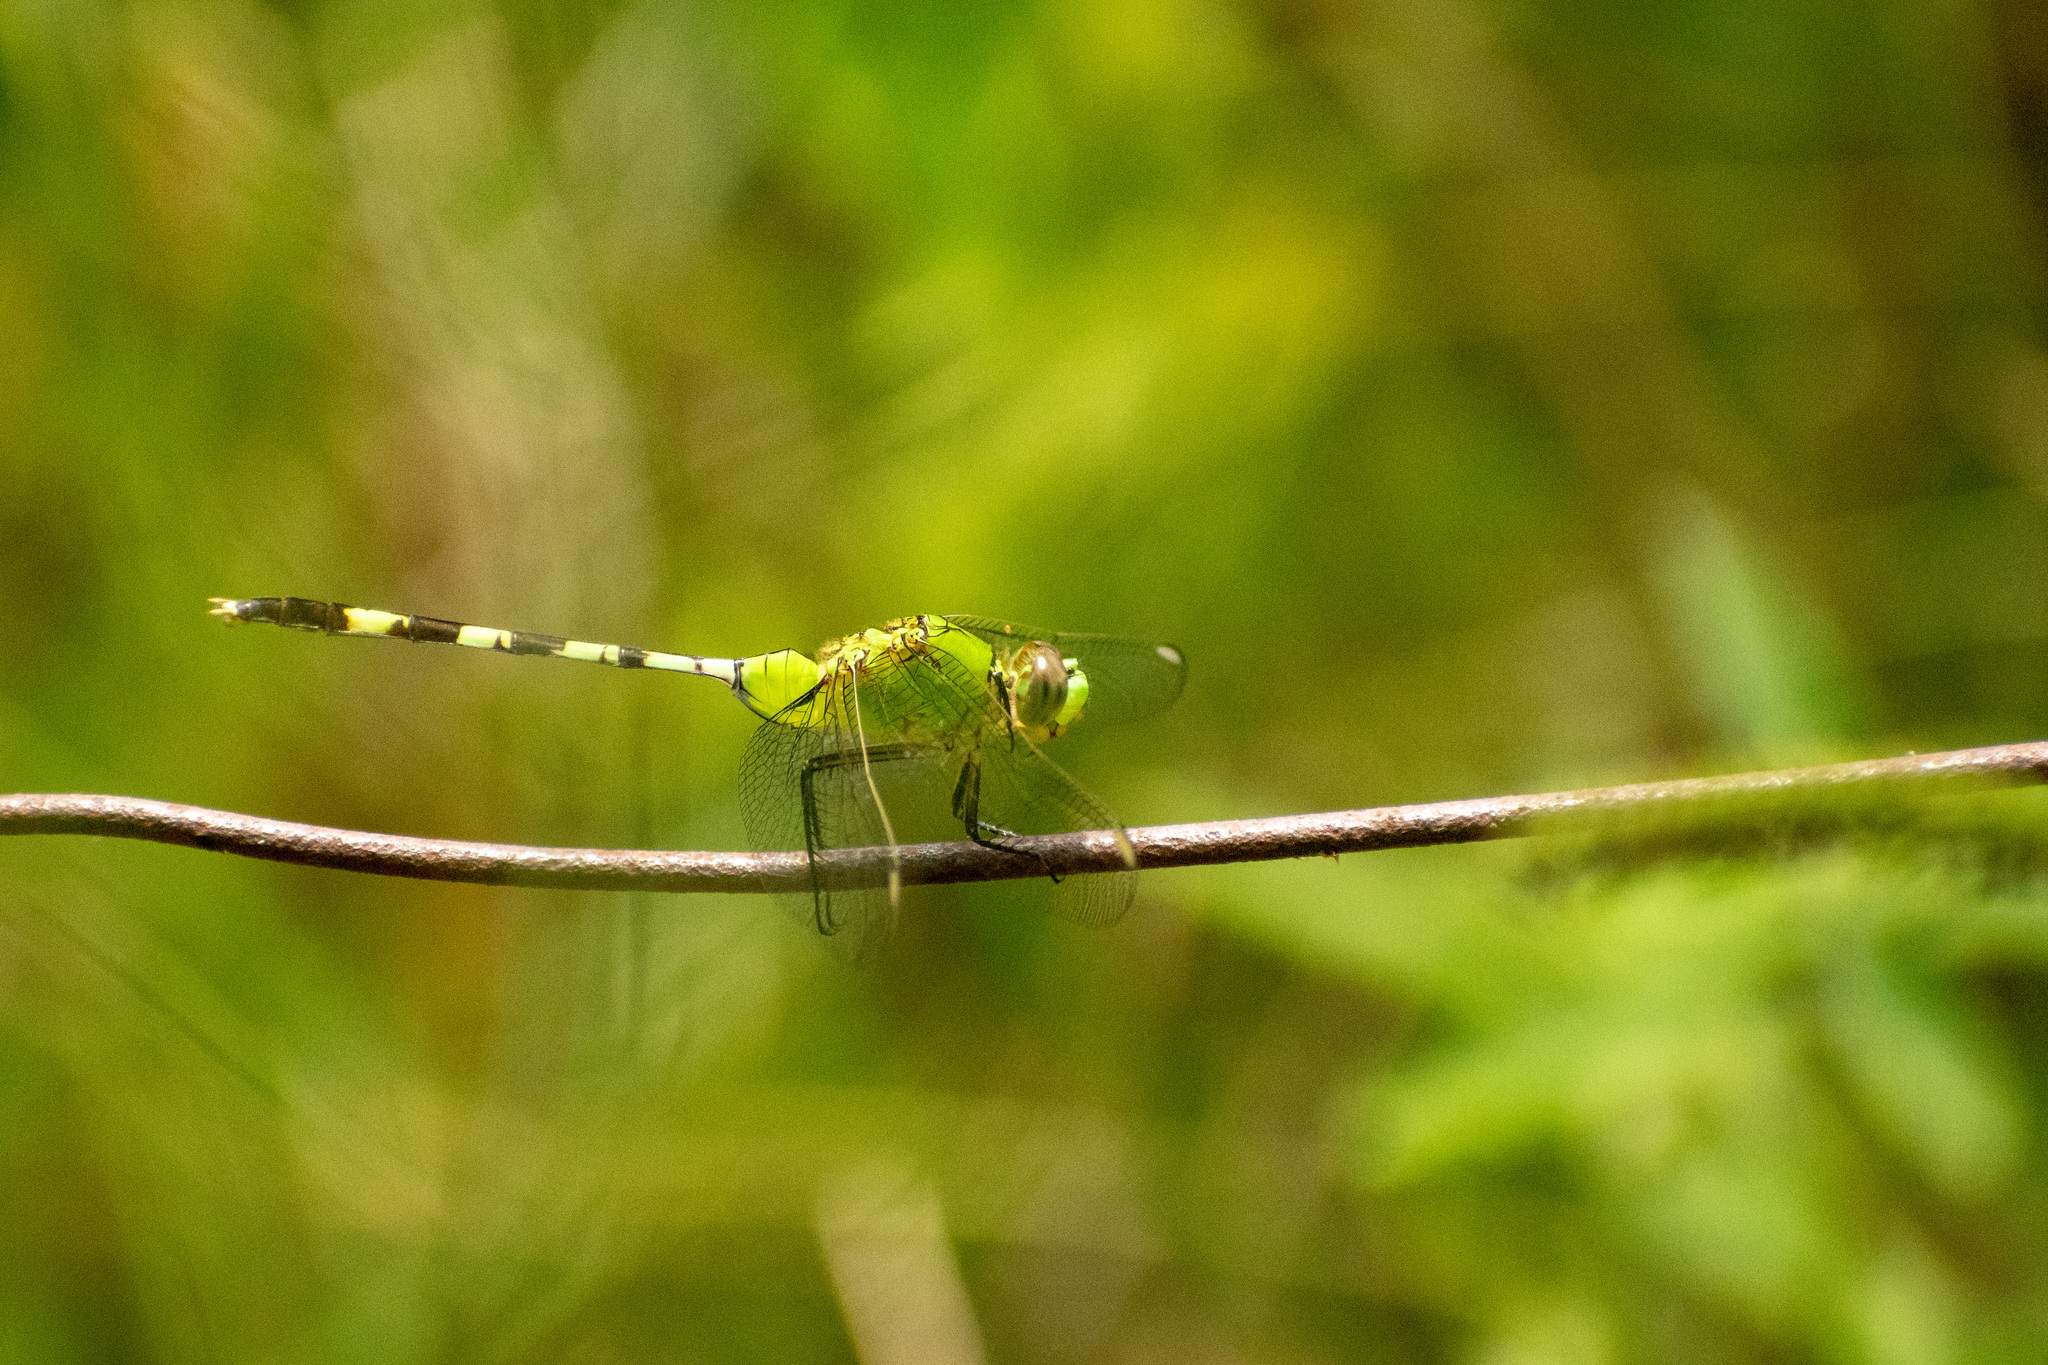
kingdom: Animalia
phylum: Arthropoda
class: Insecta
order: Odonata
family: Libellulidae
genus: Erythemis
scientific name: Erythemis vesiculosa
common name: Great pondhawk
